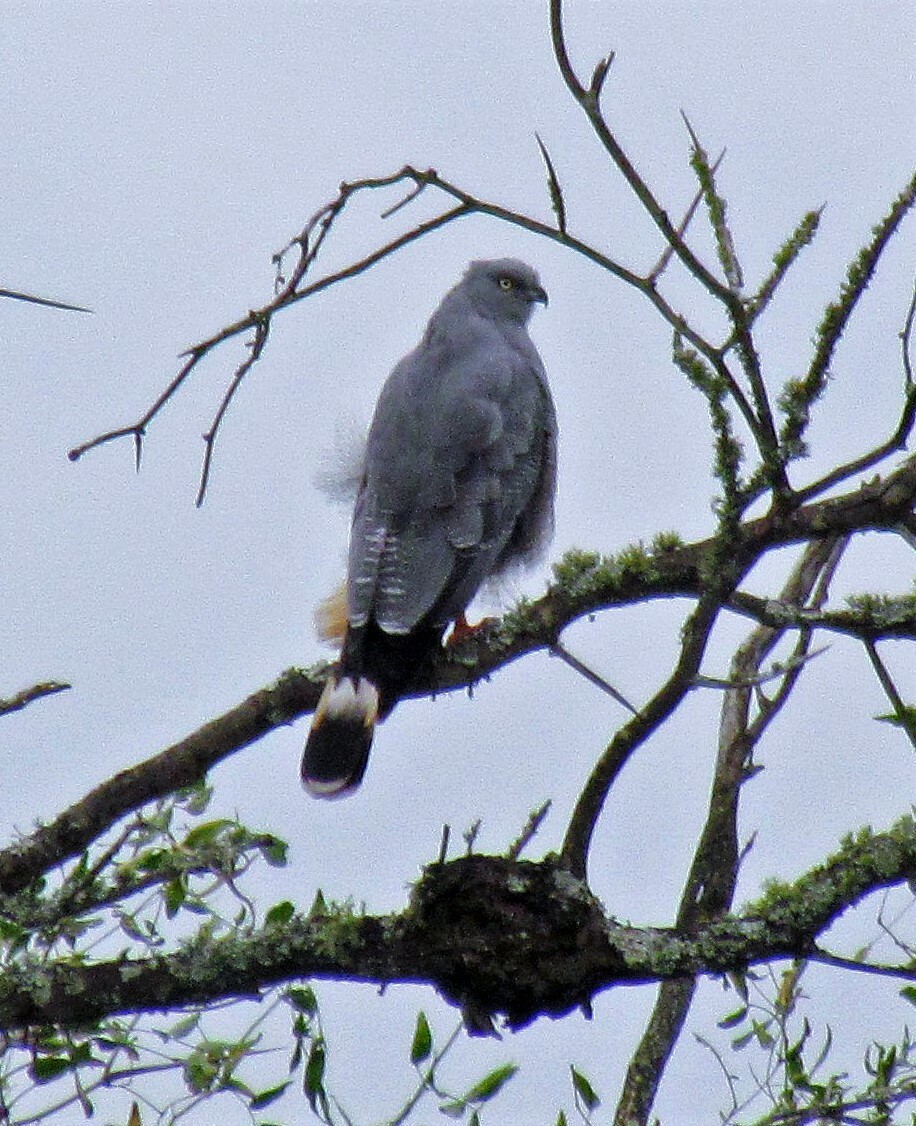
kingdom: Animalia
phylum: Chordata
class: Aves
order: Accipitriformes
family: Accipitridae
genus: Geranospiza
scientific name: Geranospiza caerulescens
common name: Crane hawk
